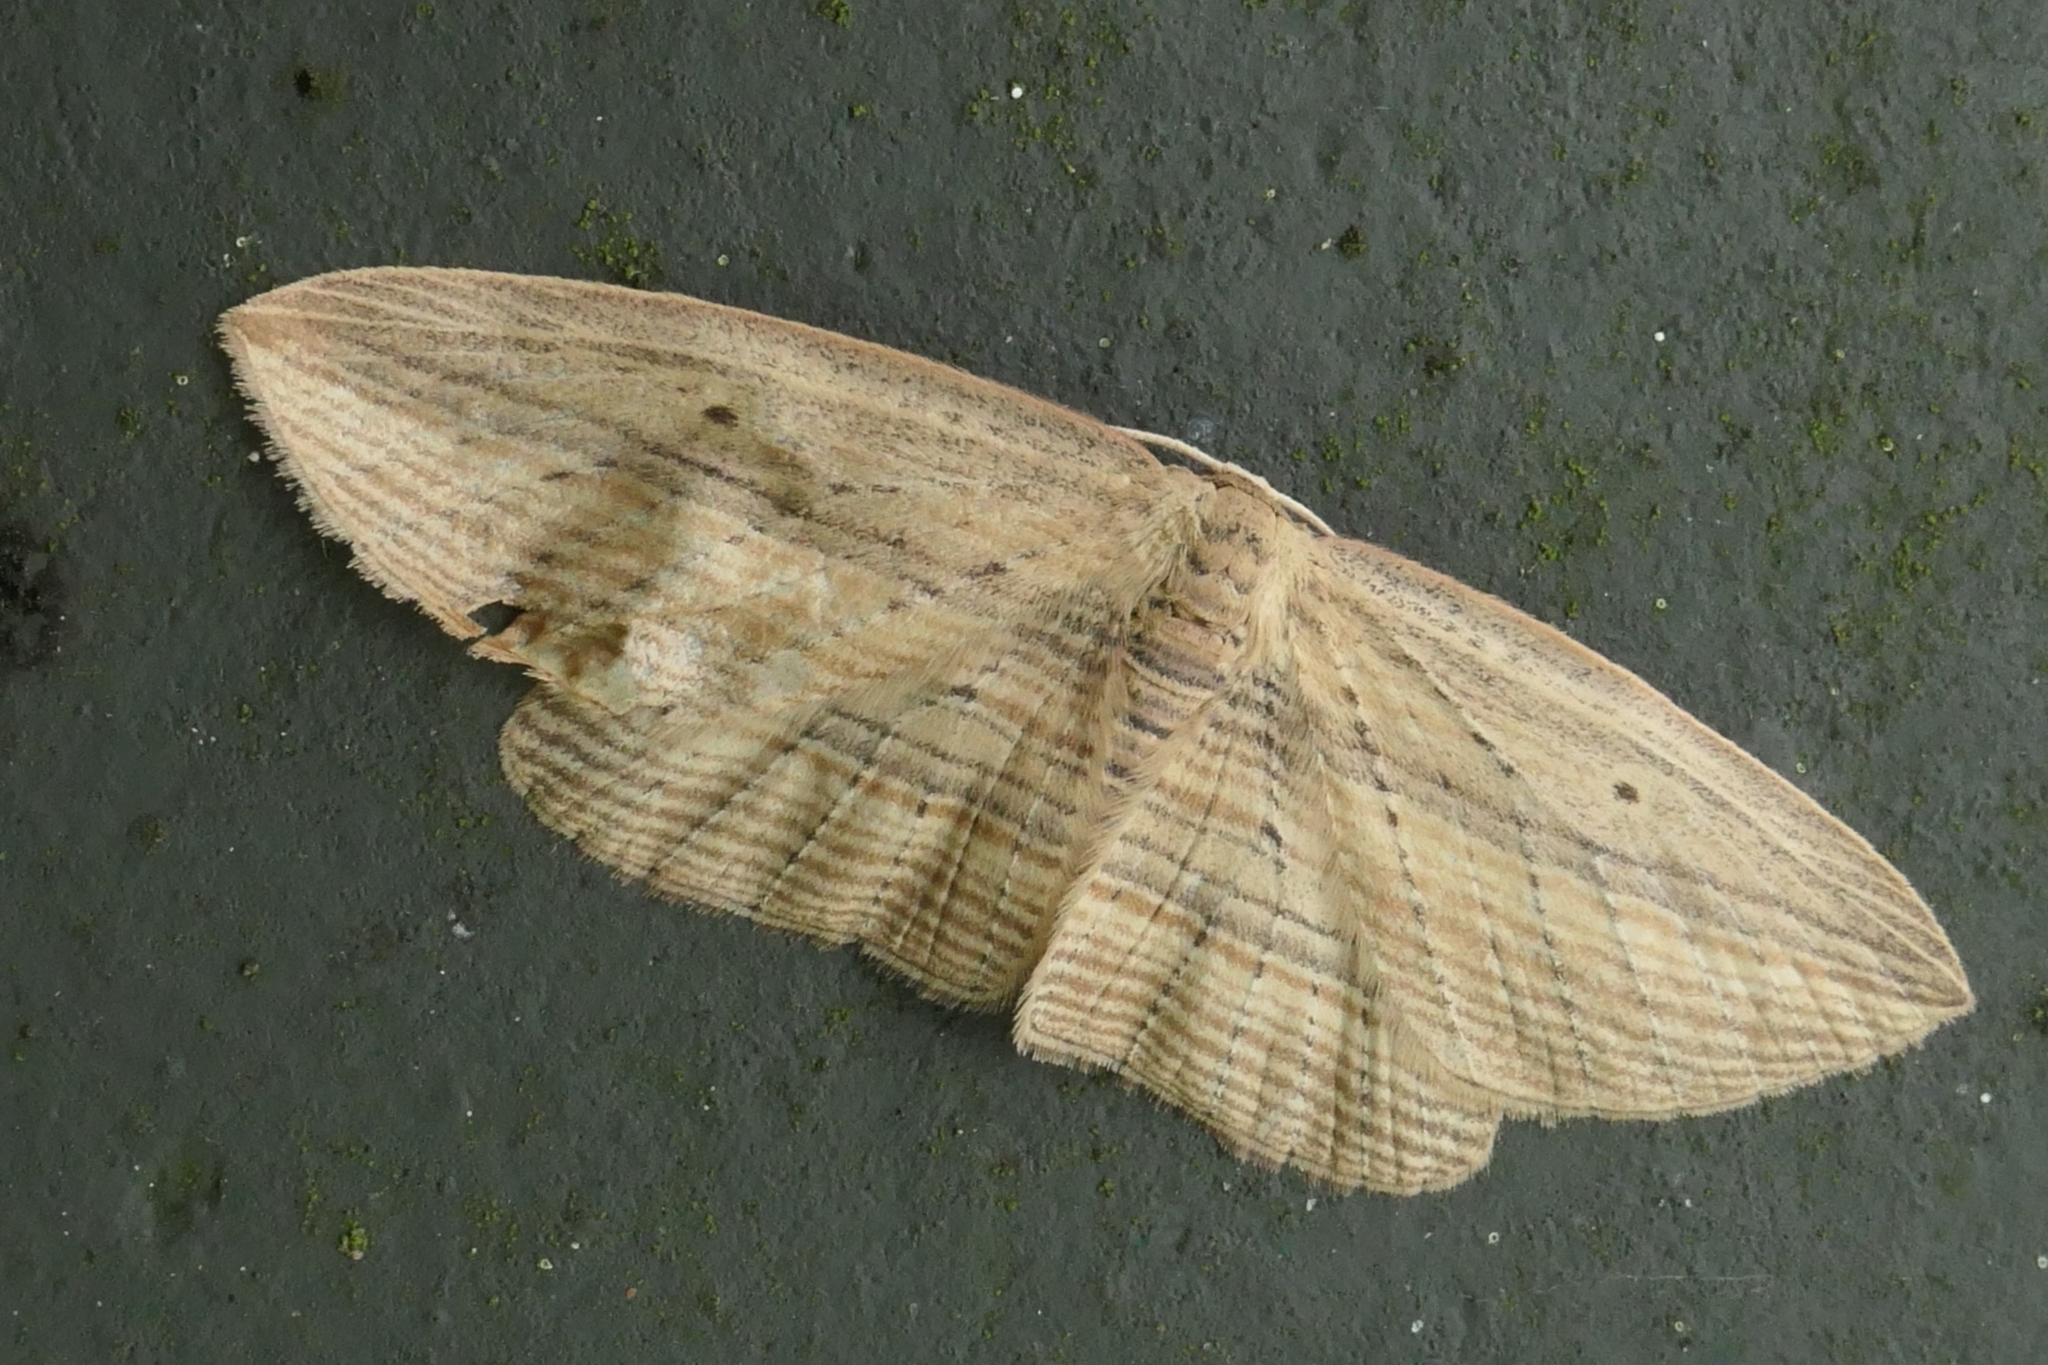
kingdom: Animalia
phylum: Arthropoda
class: Insecta
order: Lepidoptera
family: Geometridae
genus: Epiphryne
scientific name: Epiphryne verriculata
